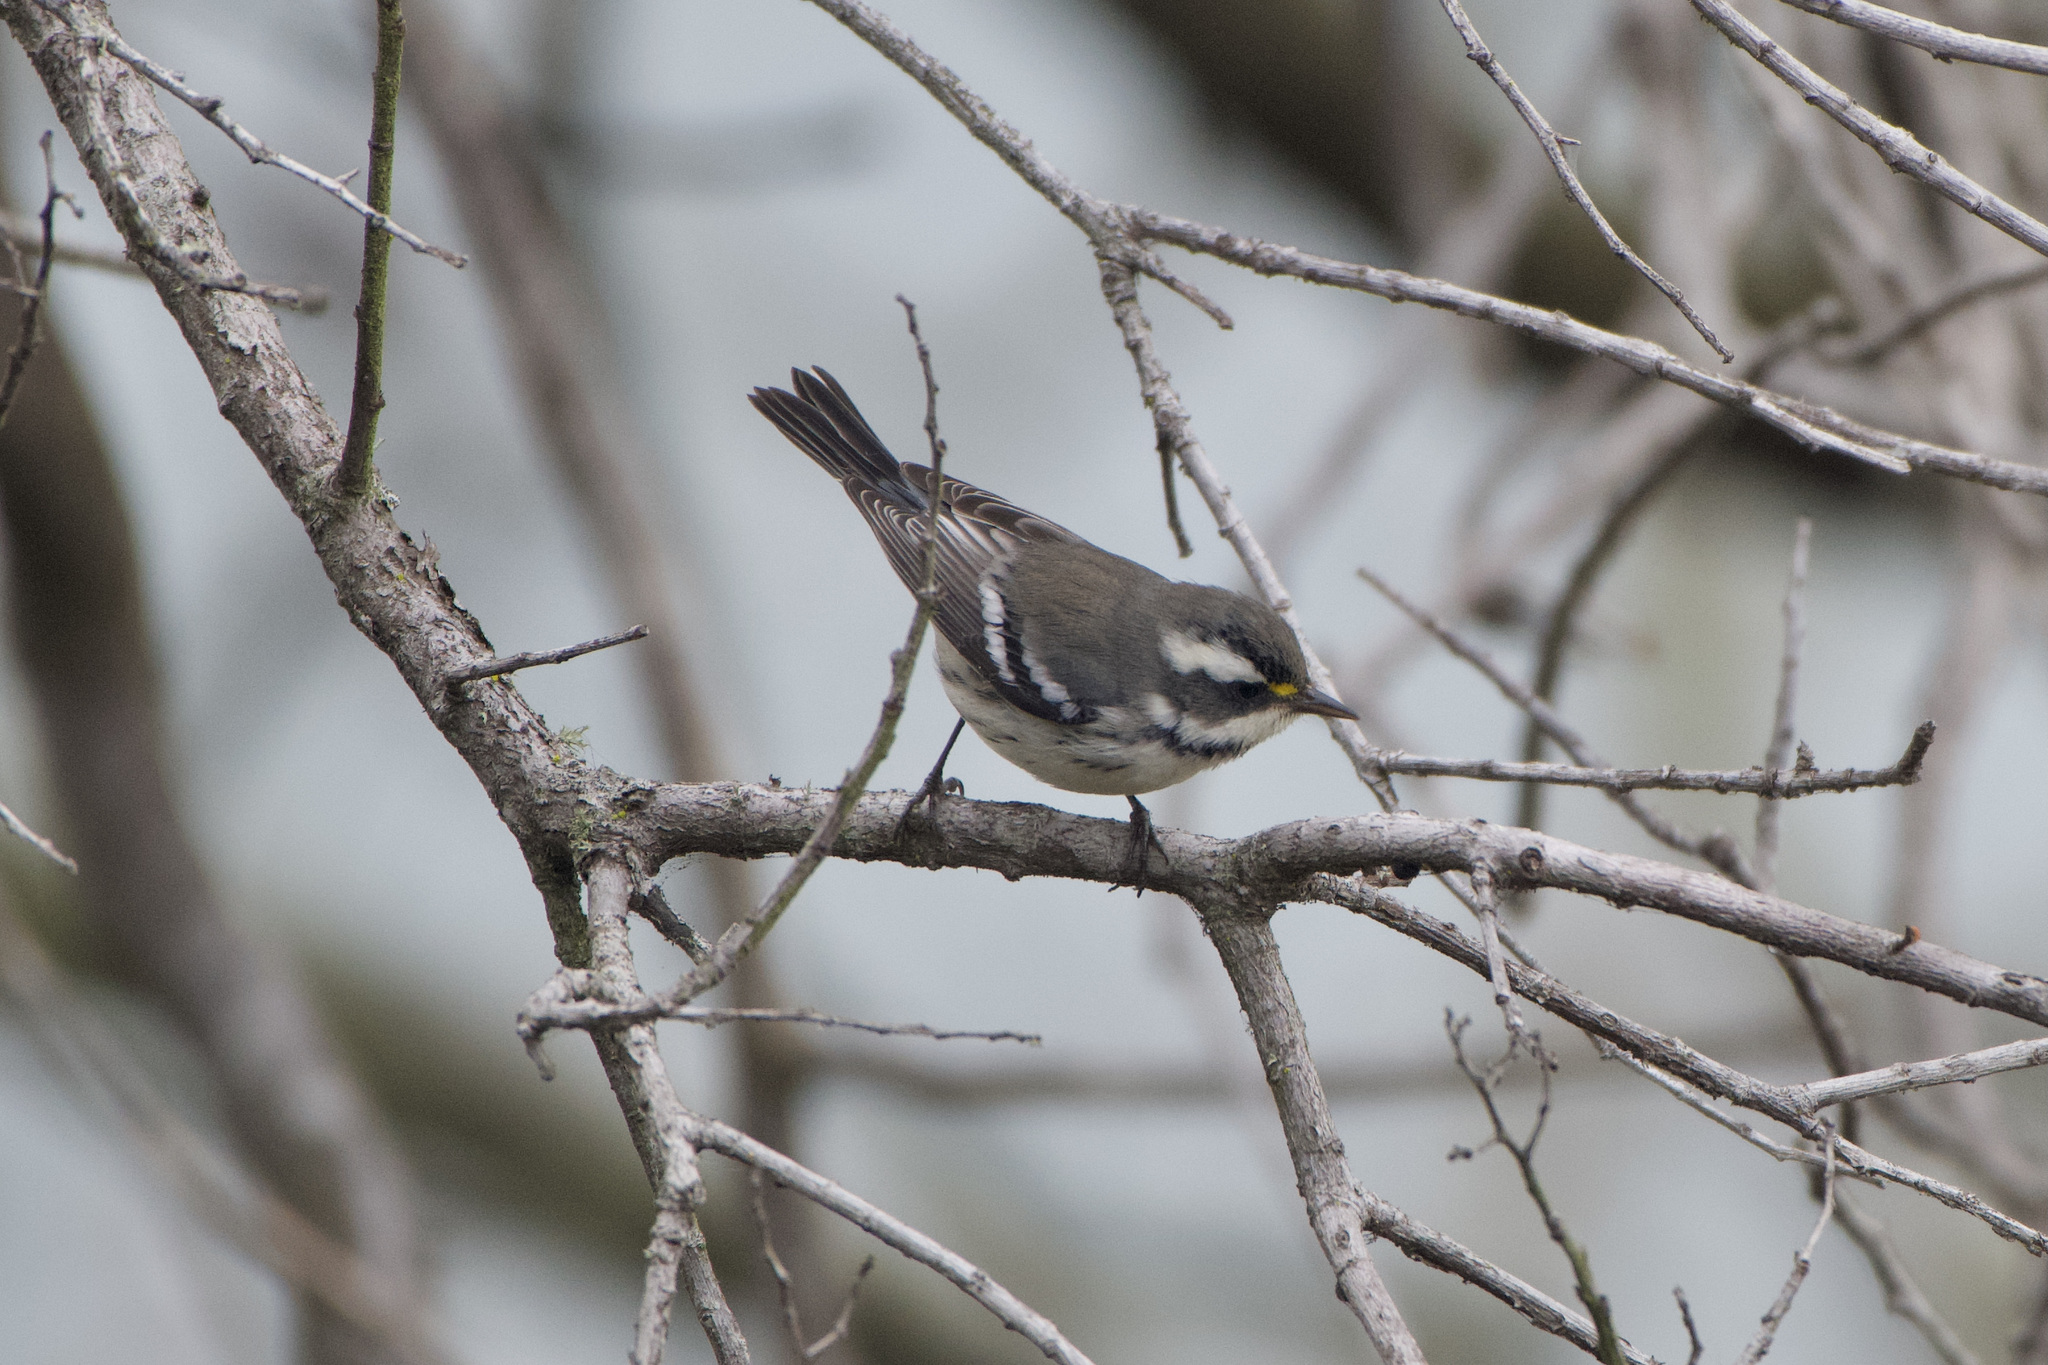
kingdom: Animalia
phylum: Chordata
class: Aves
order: Passeriformes
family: Parulidae
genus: Setophaga
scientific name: Setophaga nigrescens
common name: Black-throated gray warbler
